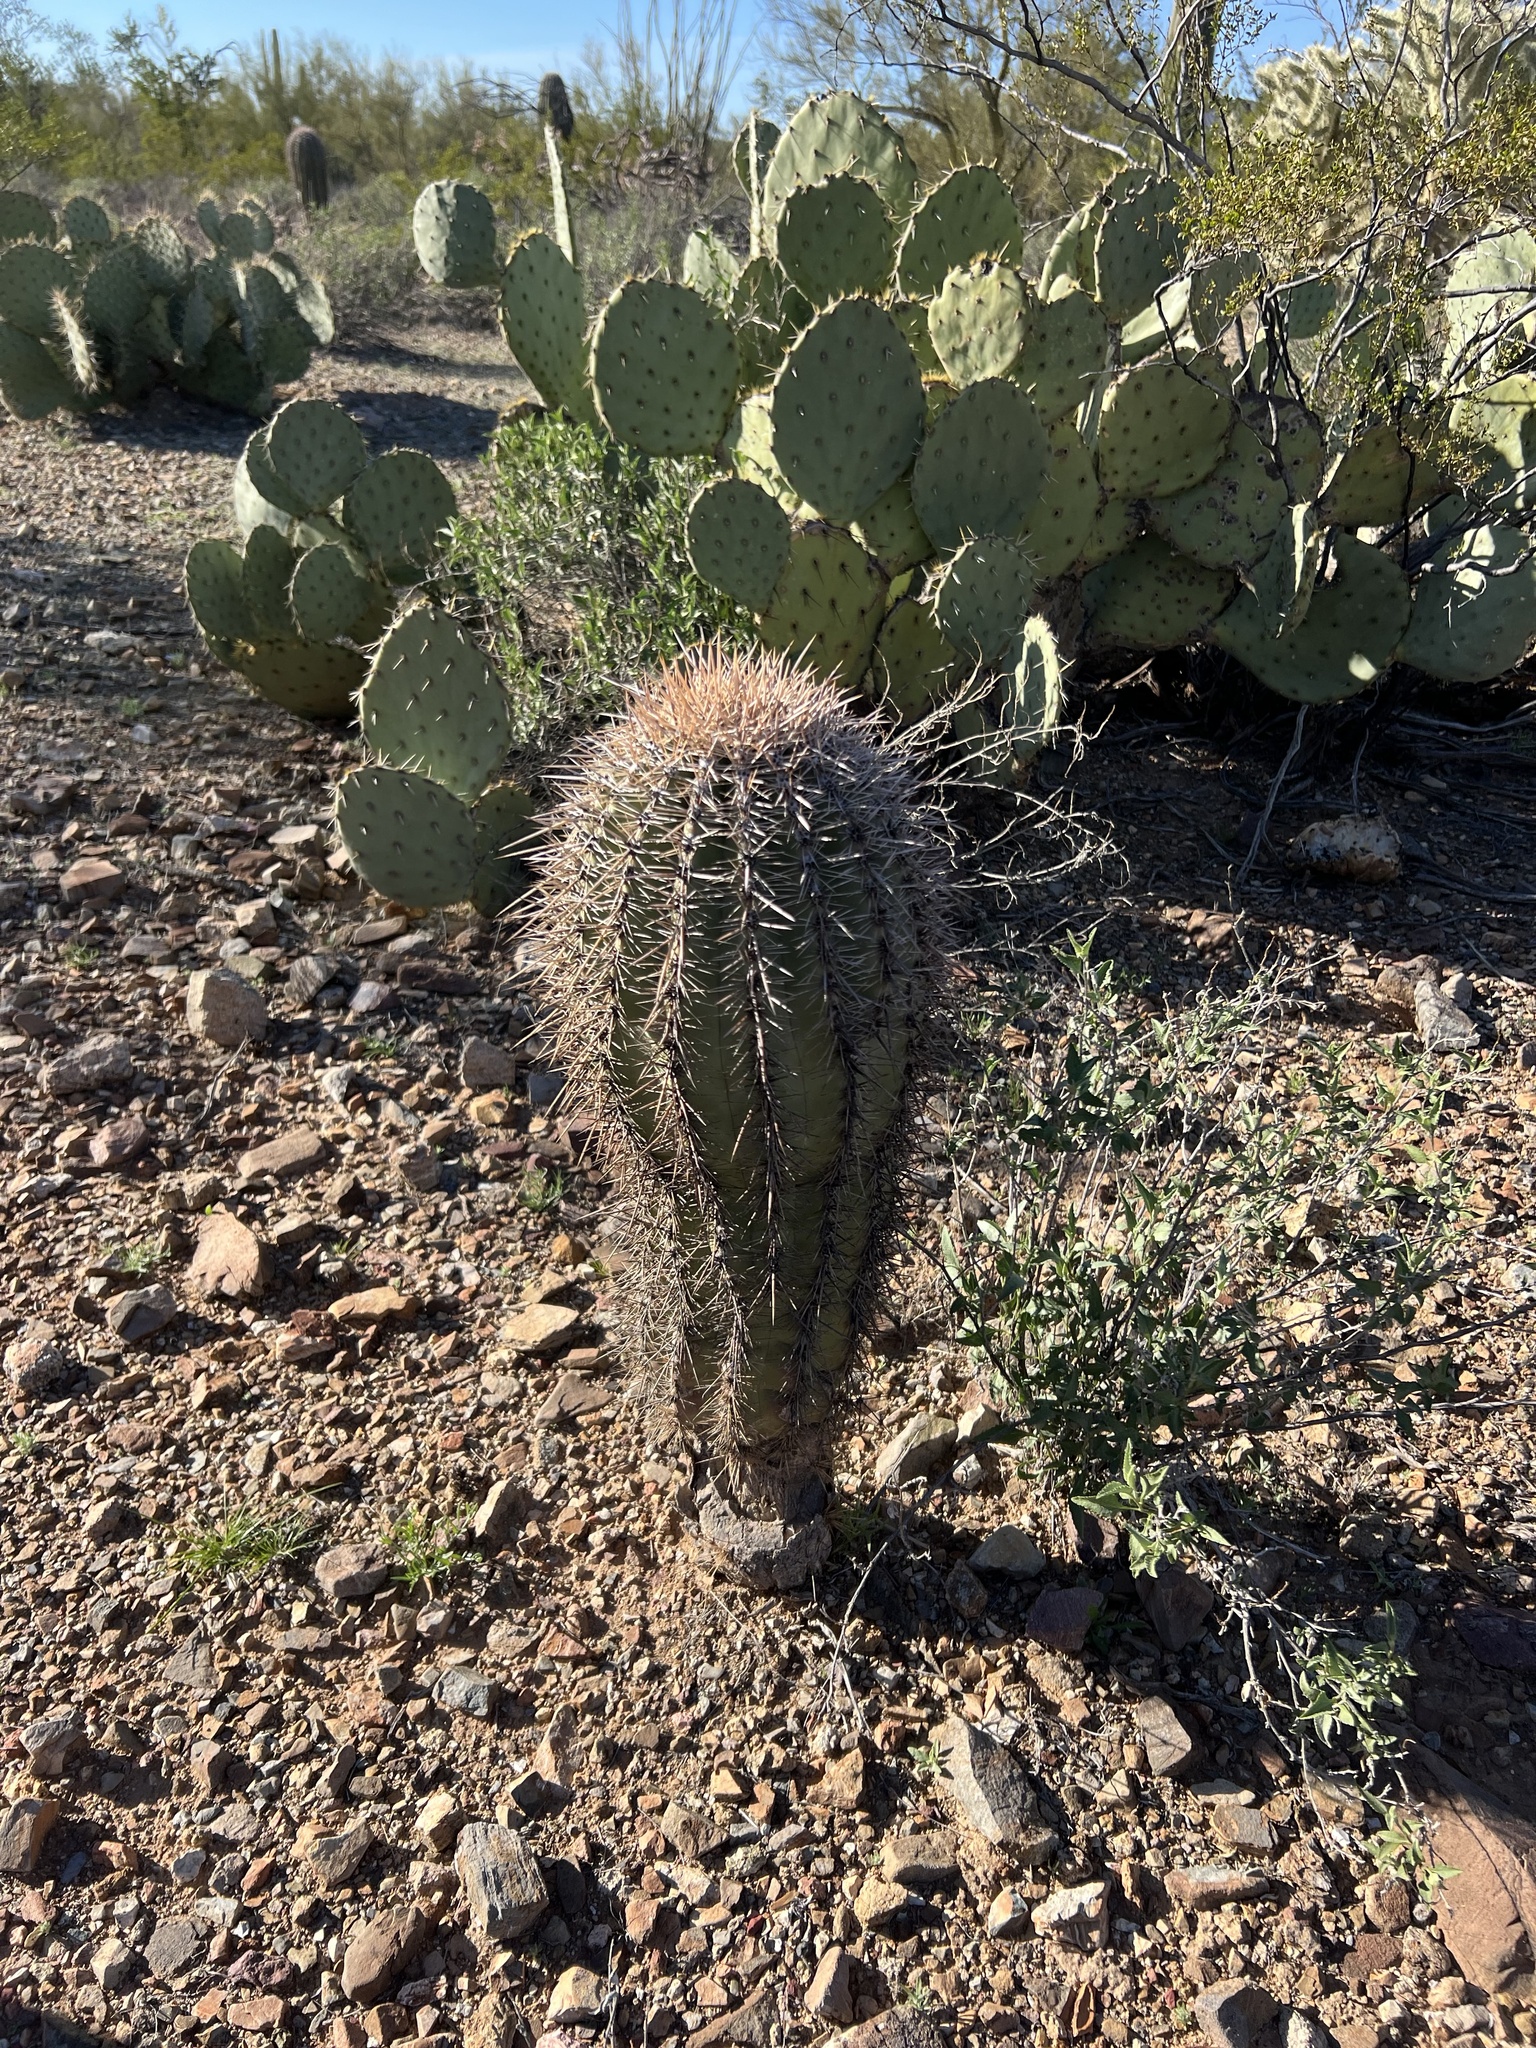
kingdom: Plantae
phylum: Tracheophyta
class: Magnoliopsida
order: Caryophyllales
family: Cactaceae
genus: Carnegiea
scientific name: Carnegiea gigantea
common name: Saguaro
